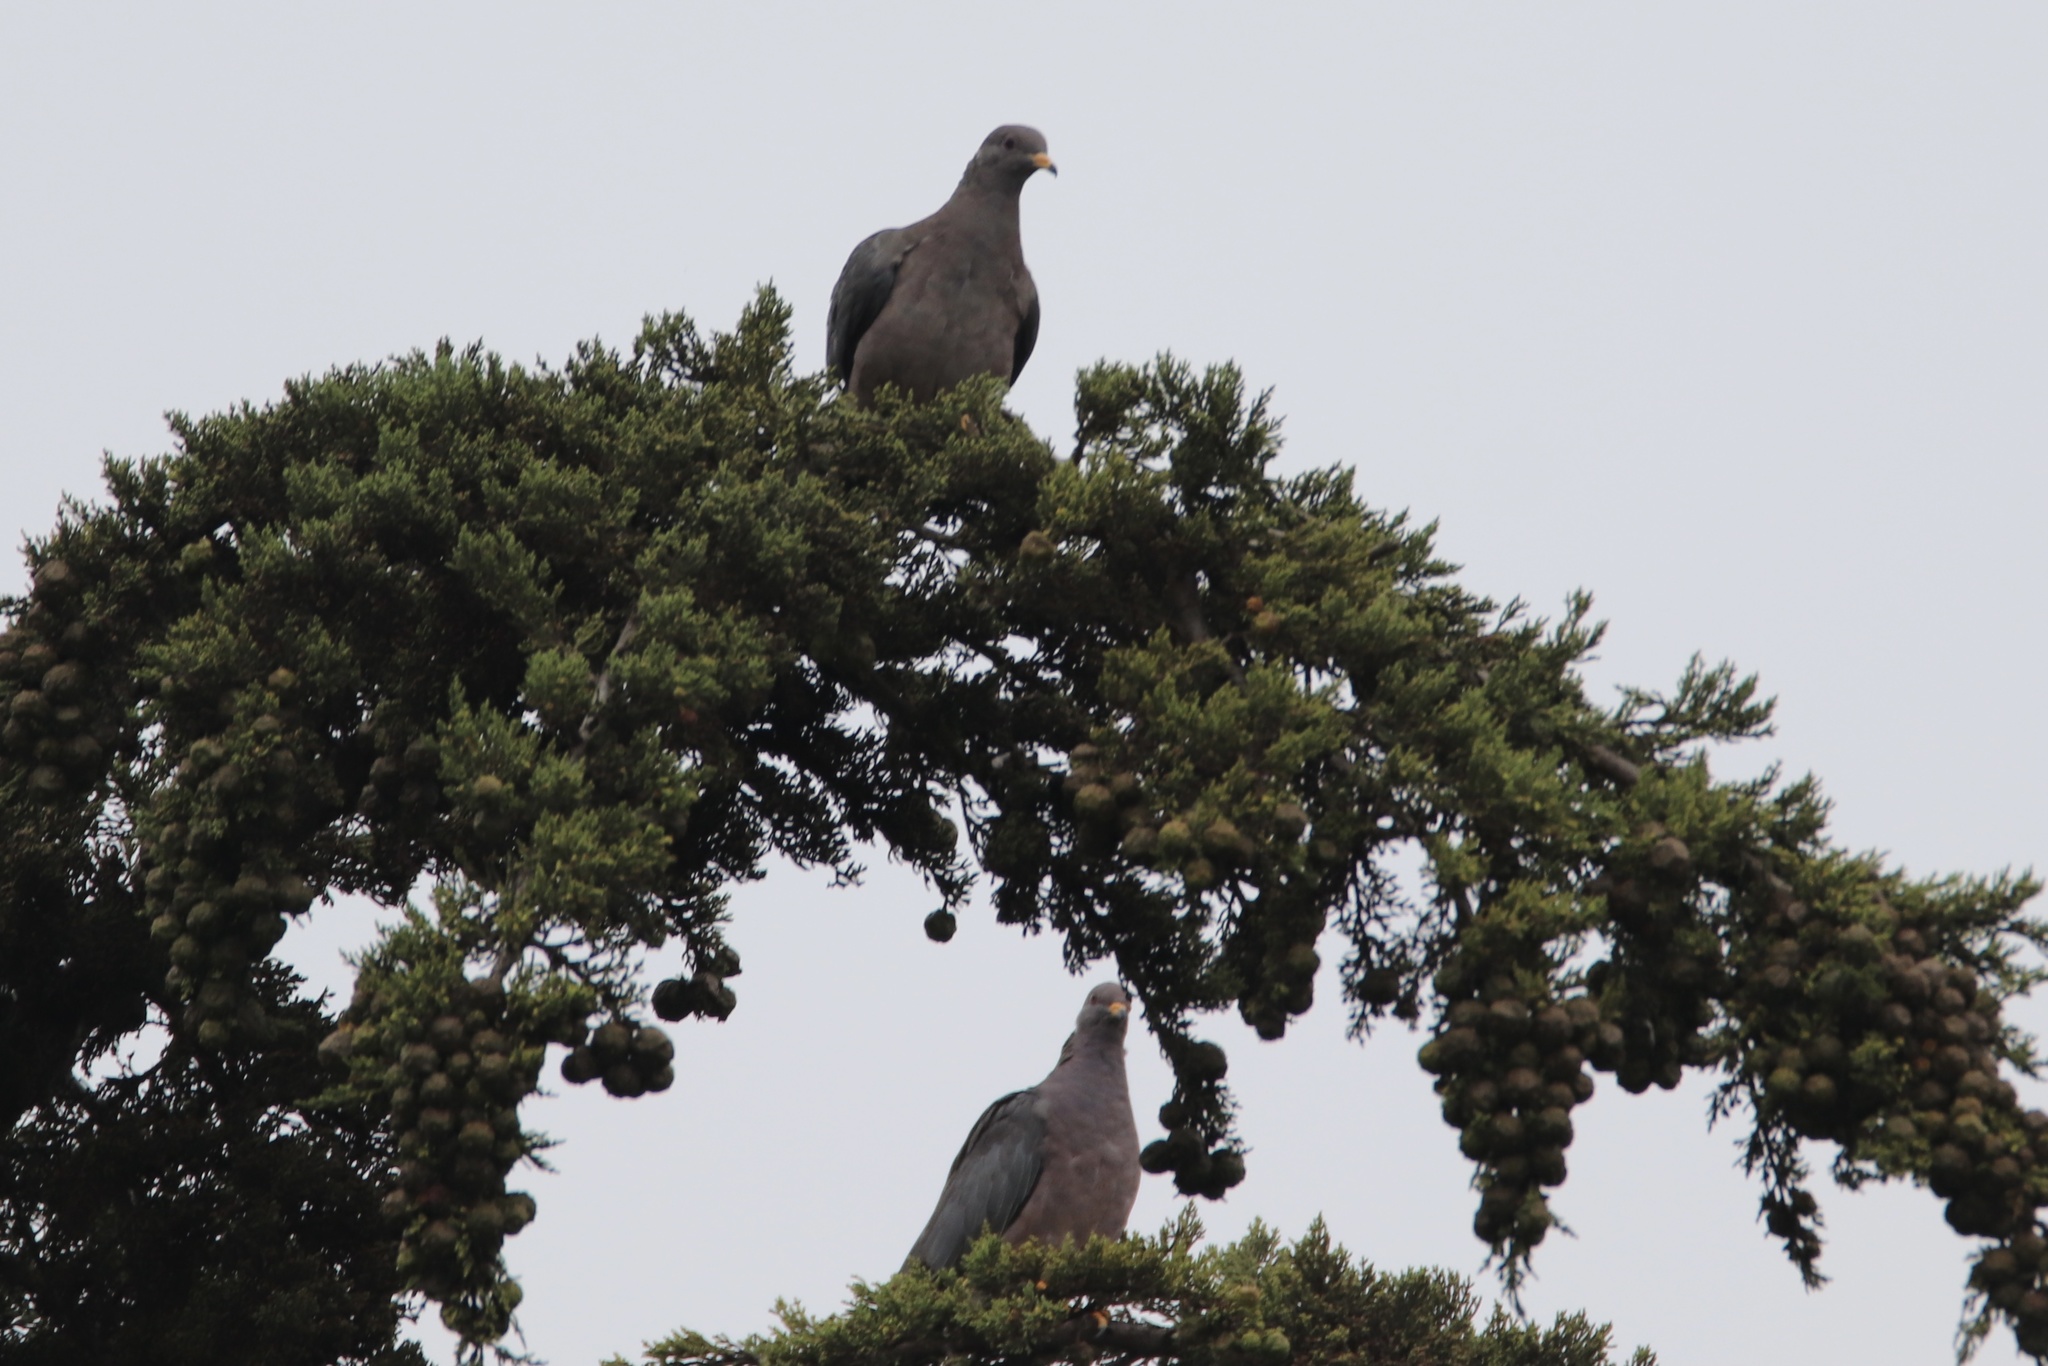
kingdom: Animalia
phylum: Chordata
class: Aves
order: Columbiformes
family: Columbidae
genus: Patagioenas
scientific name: Patagioenas fasciata
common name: Band-tailed pigeon
